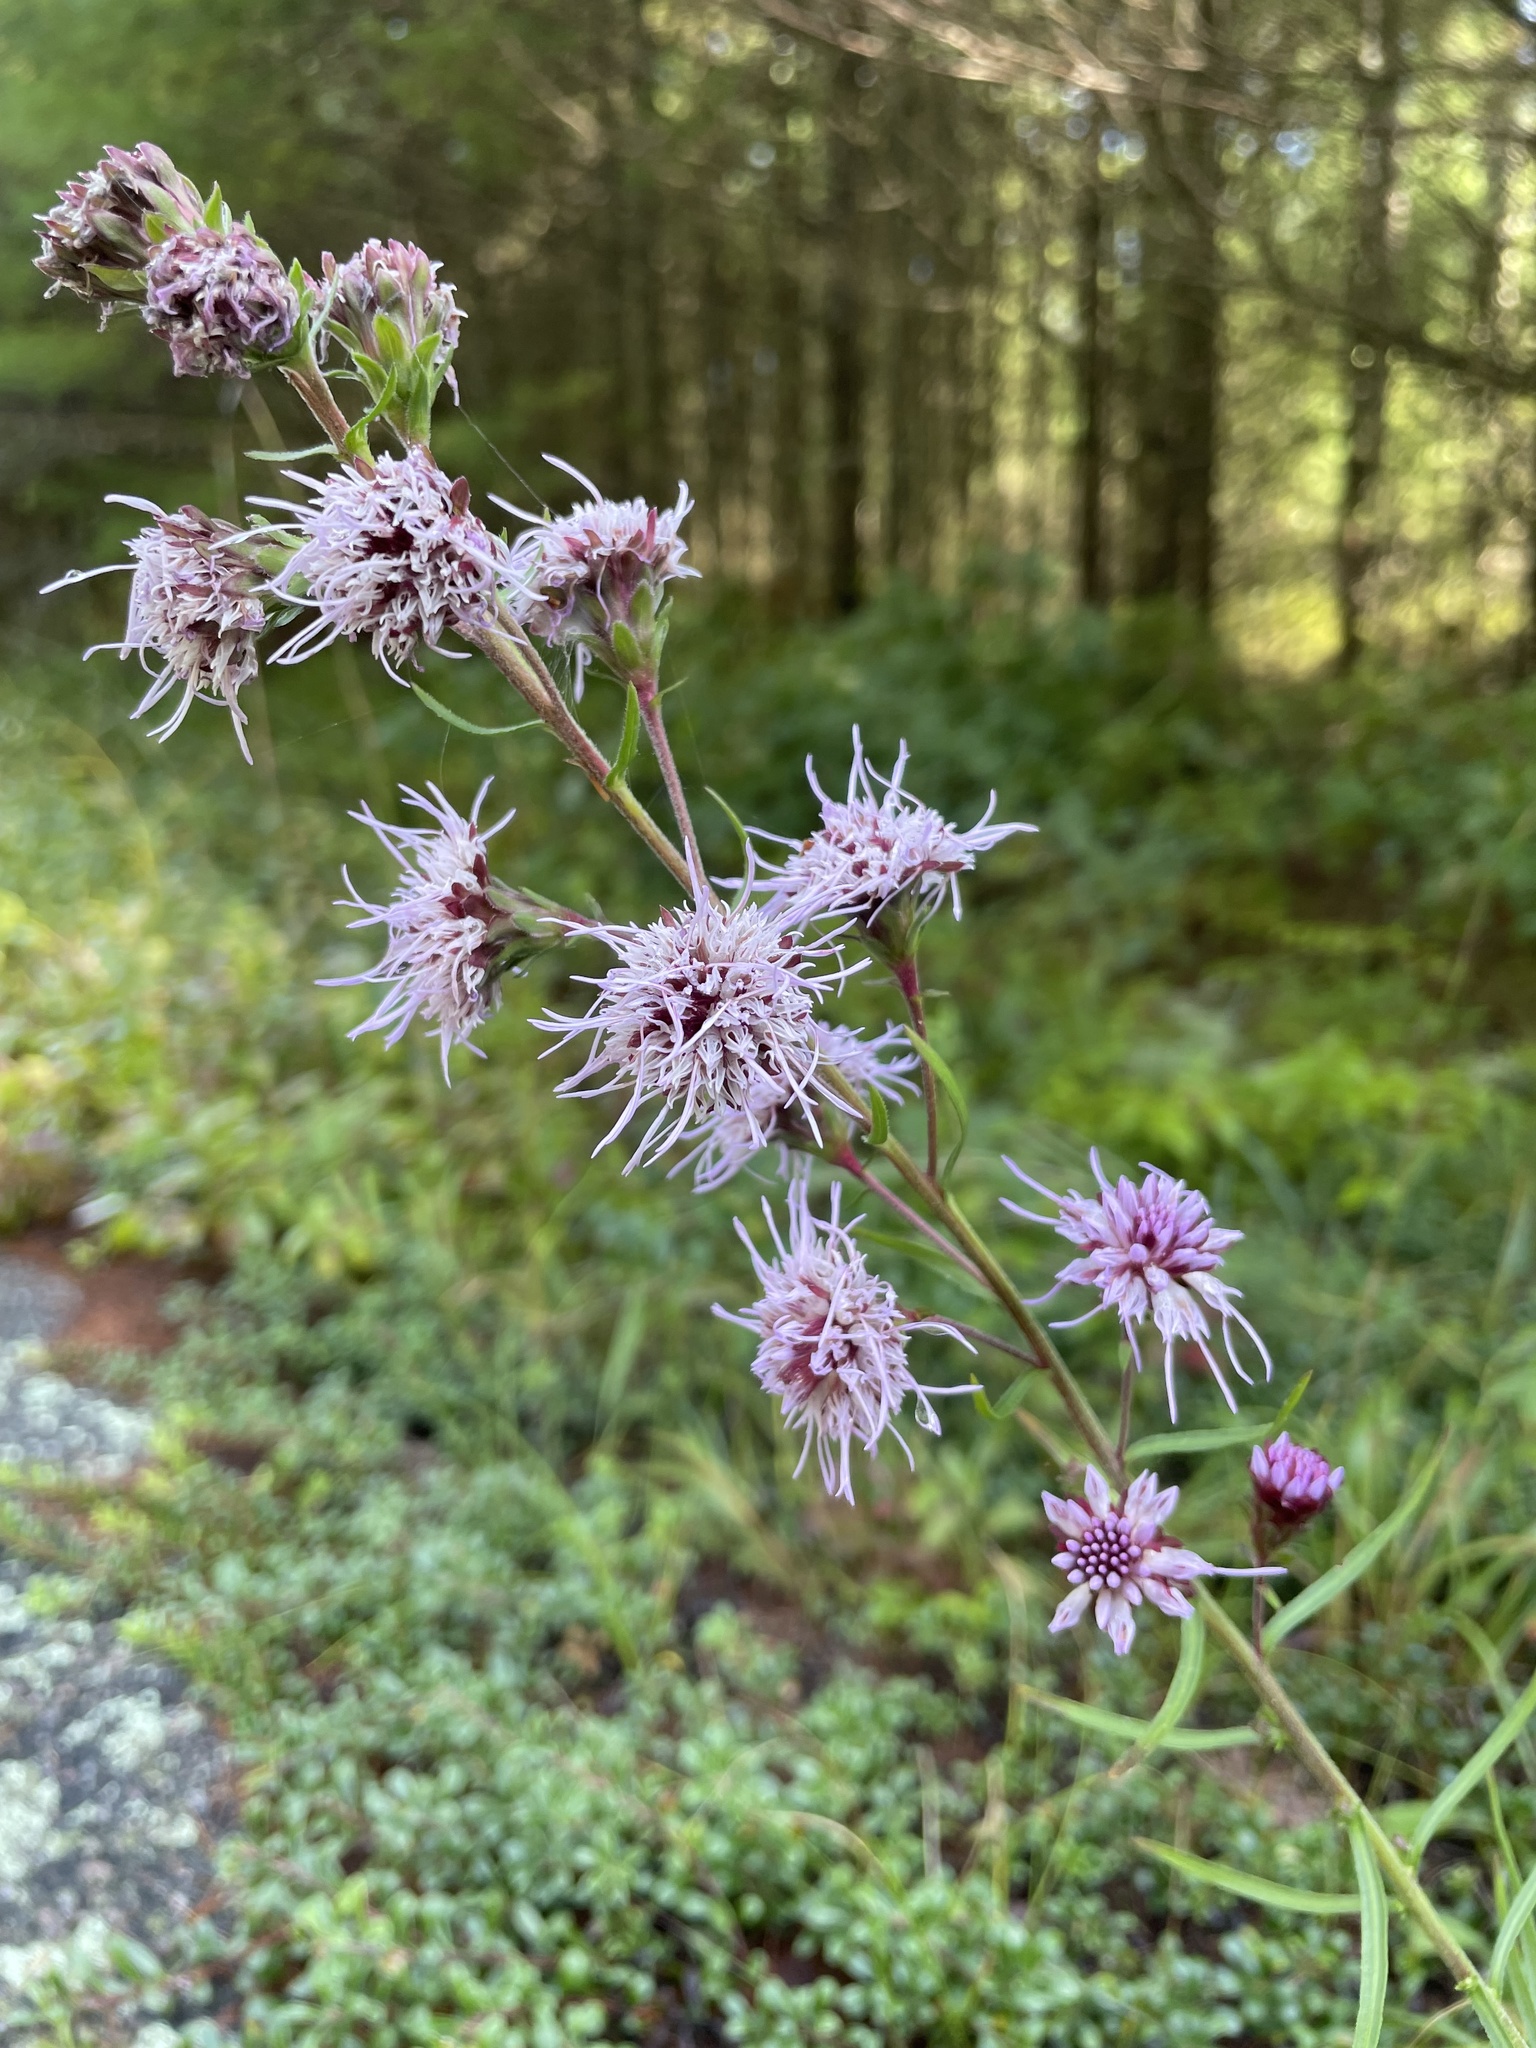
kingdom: Plantae
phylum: Tracheophyta
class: Magnoliopsida
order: Asterales
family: Asteraceae
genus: Liatris
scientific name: Liatris scariosa
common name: Northern gayfeather
